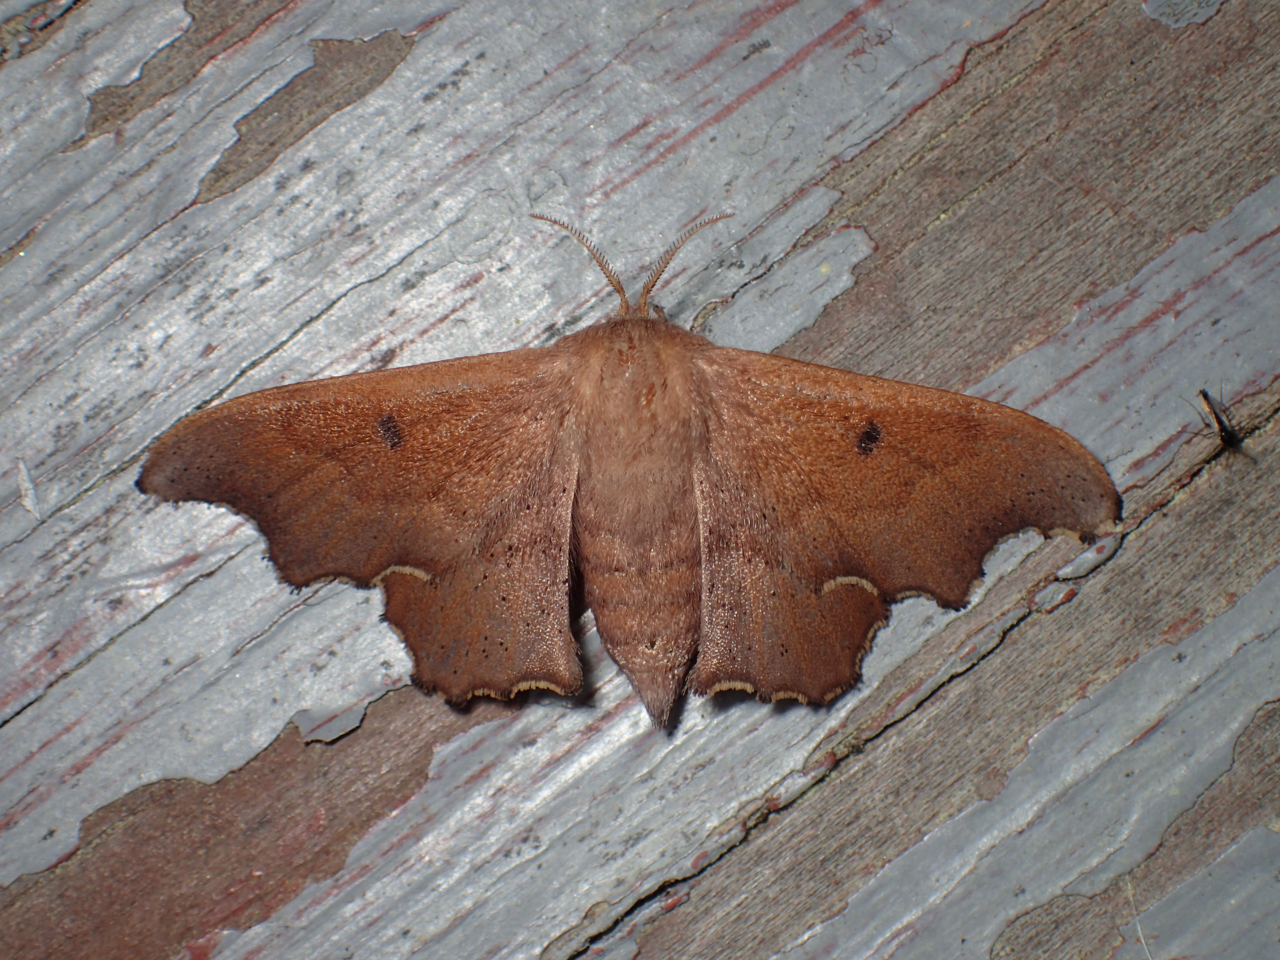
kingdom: Animalia
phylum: Arthropoda
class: Insecta
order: Lepidoptera
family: Mimallonidae
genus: Lacosoma
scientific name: Lacosoma chiridota
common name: Scalloped sack-bearer moth
